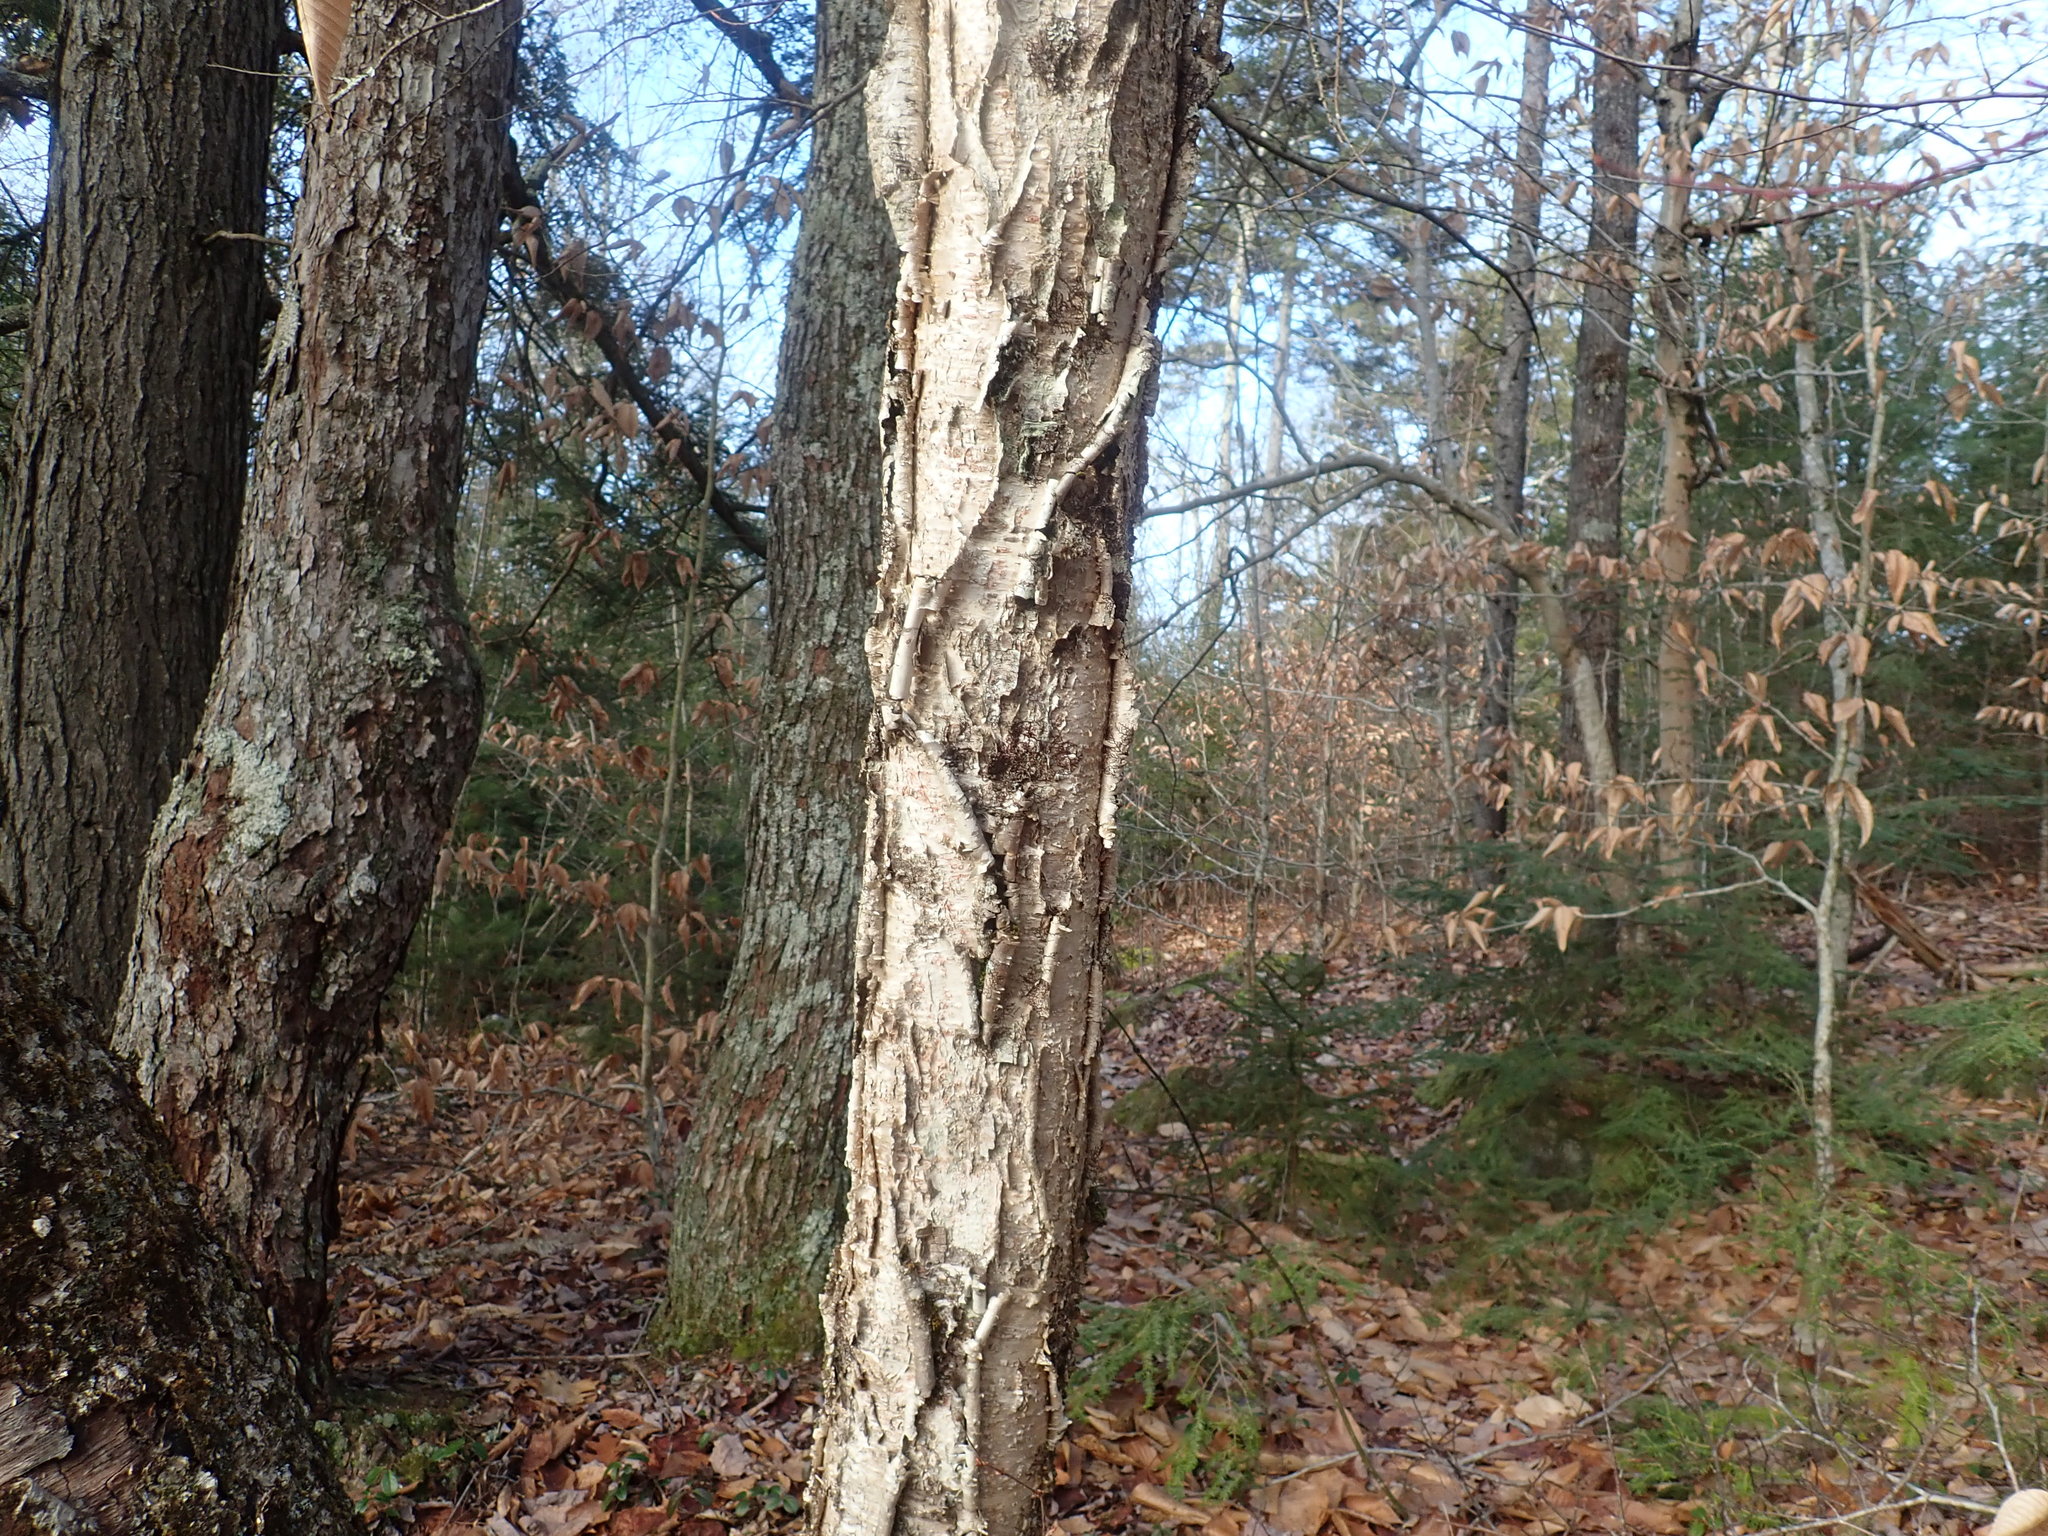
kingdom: Plantae
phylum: Tracheophyta
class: Magnoliopsida
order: Fagales
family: Betulaceae
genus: Betula
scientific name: Betula alleghaniensis
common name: Yellow birch
